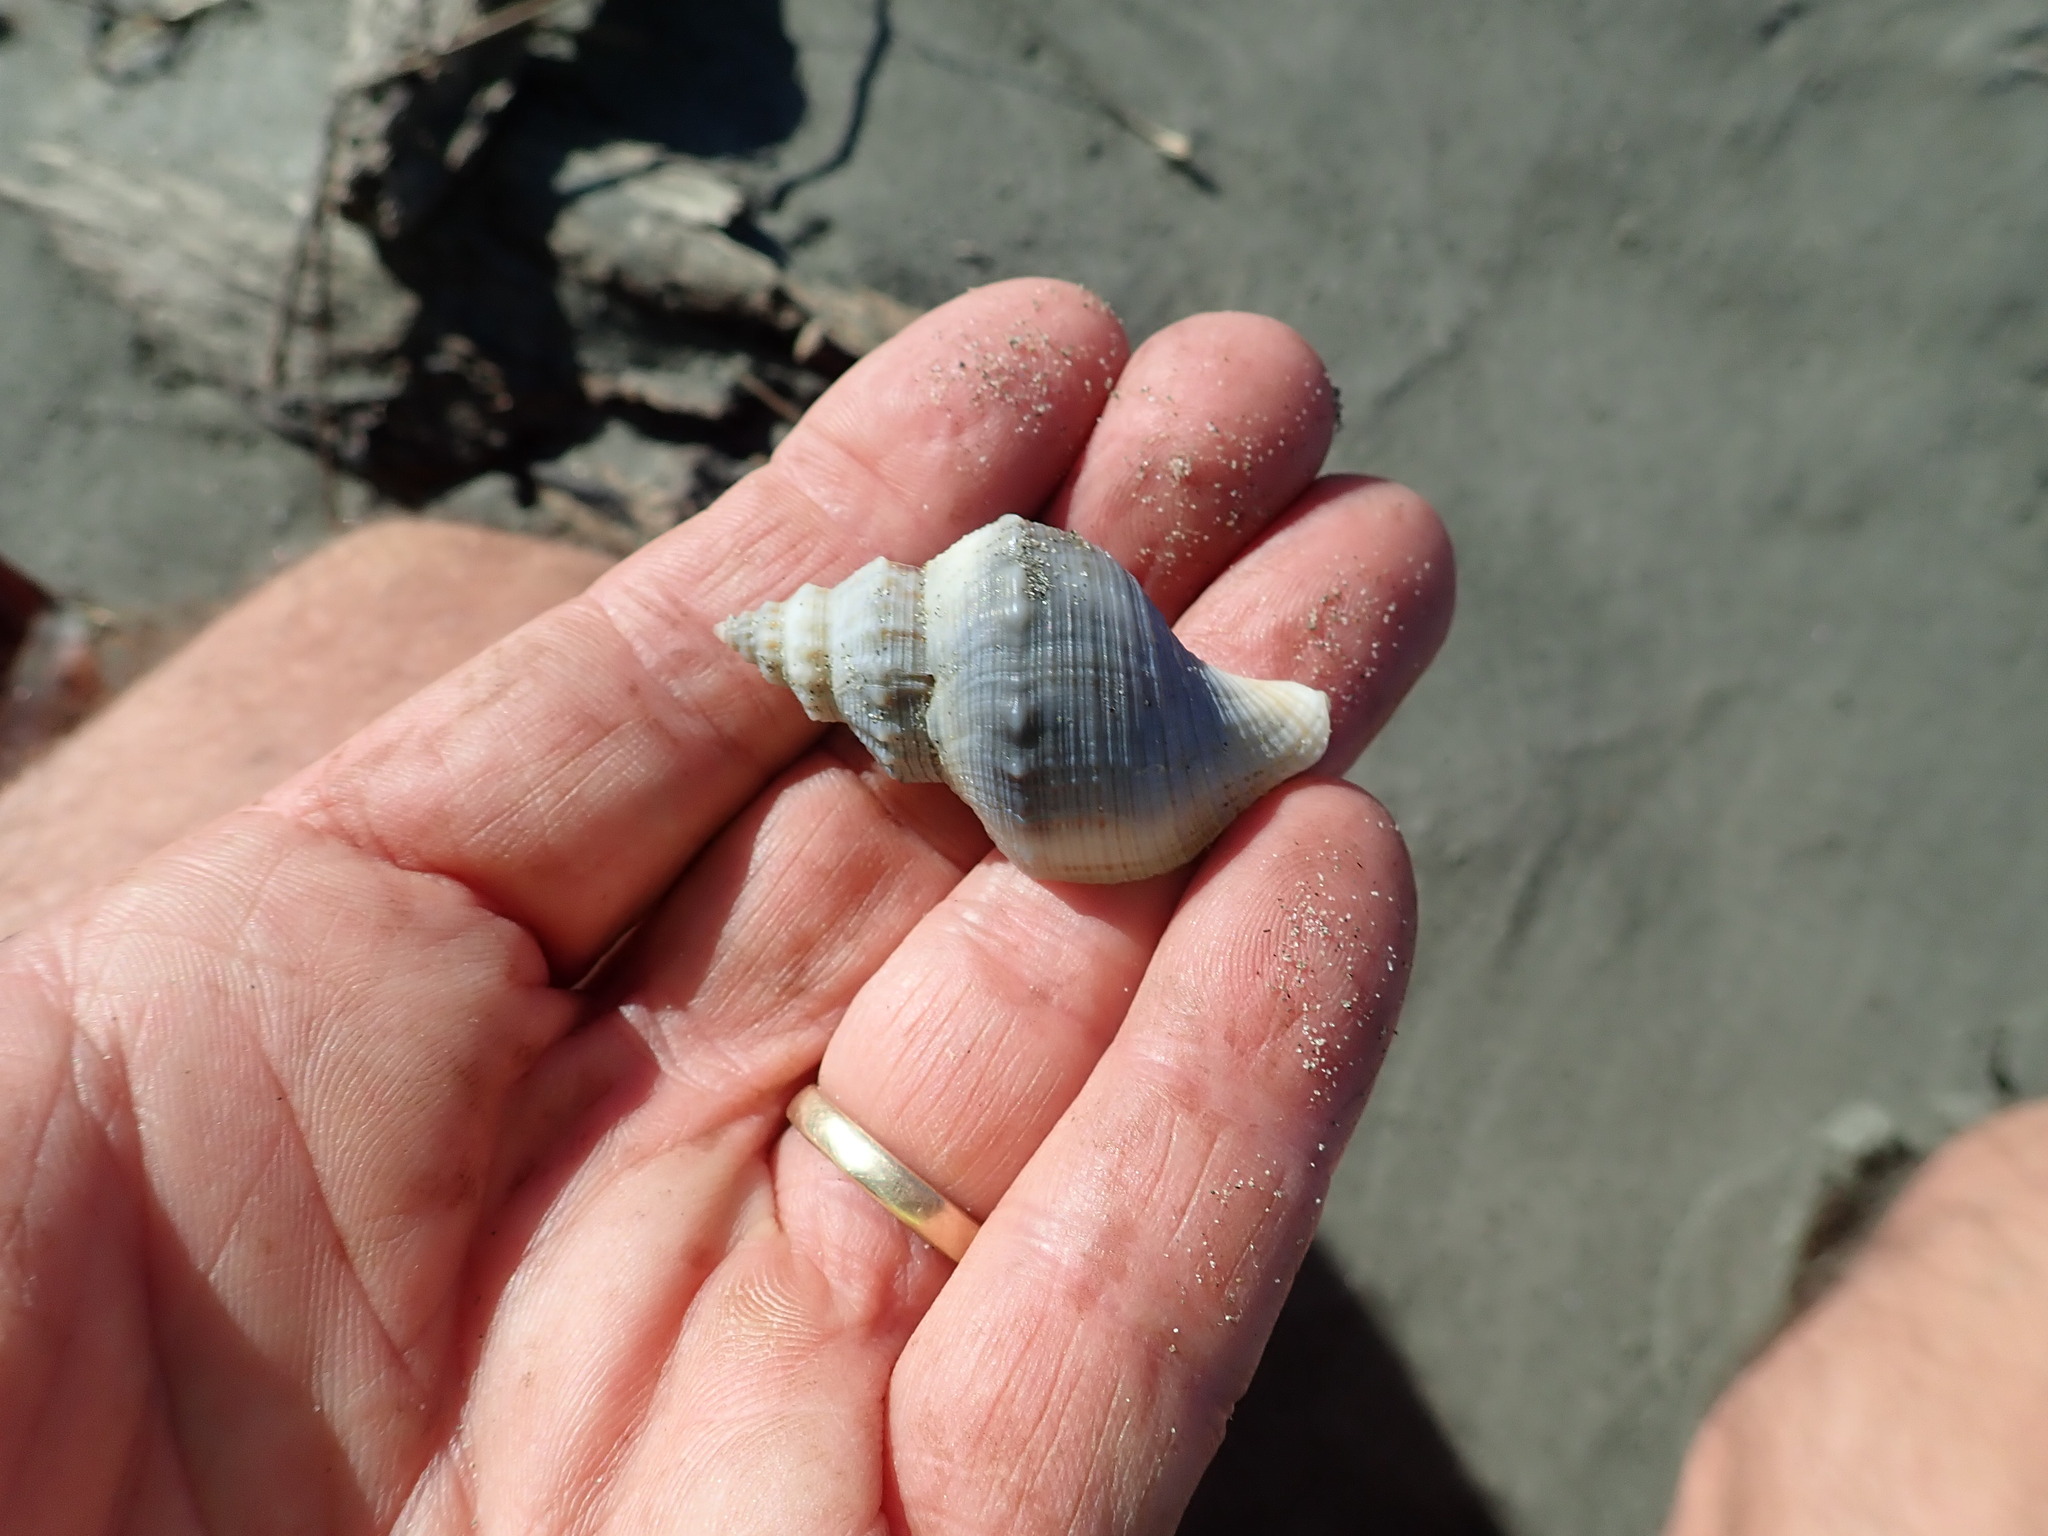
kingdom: Animalia
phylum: Mollusca
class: Gastropoda
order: Neogastropoda
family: Prosiphonidae
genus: Austrofusus
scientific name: Austrofusus glans
